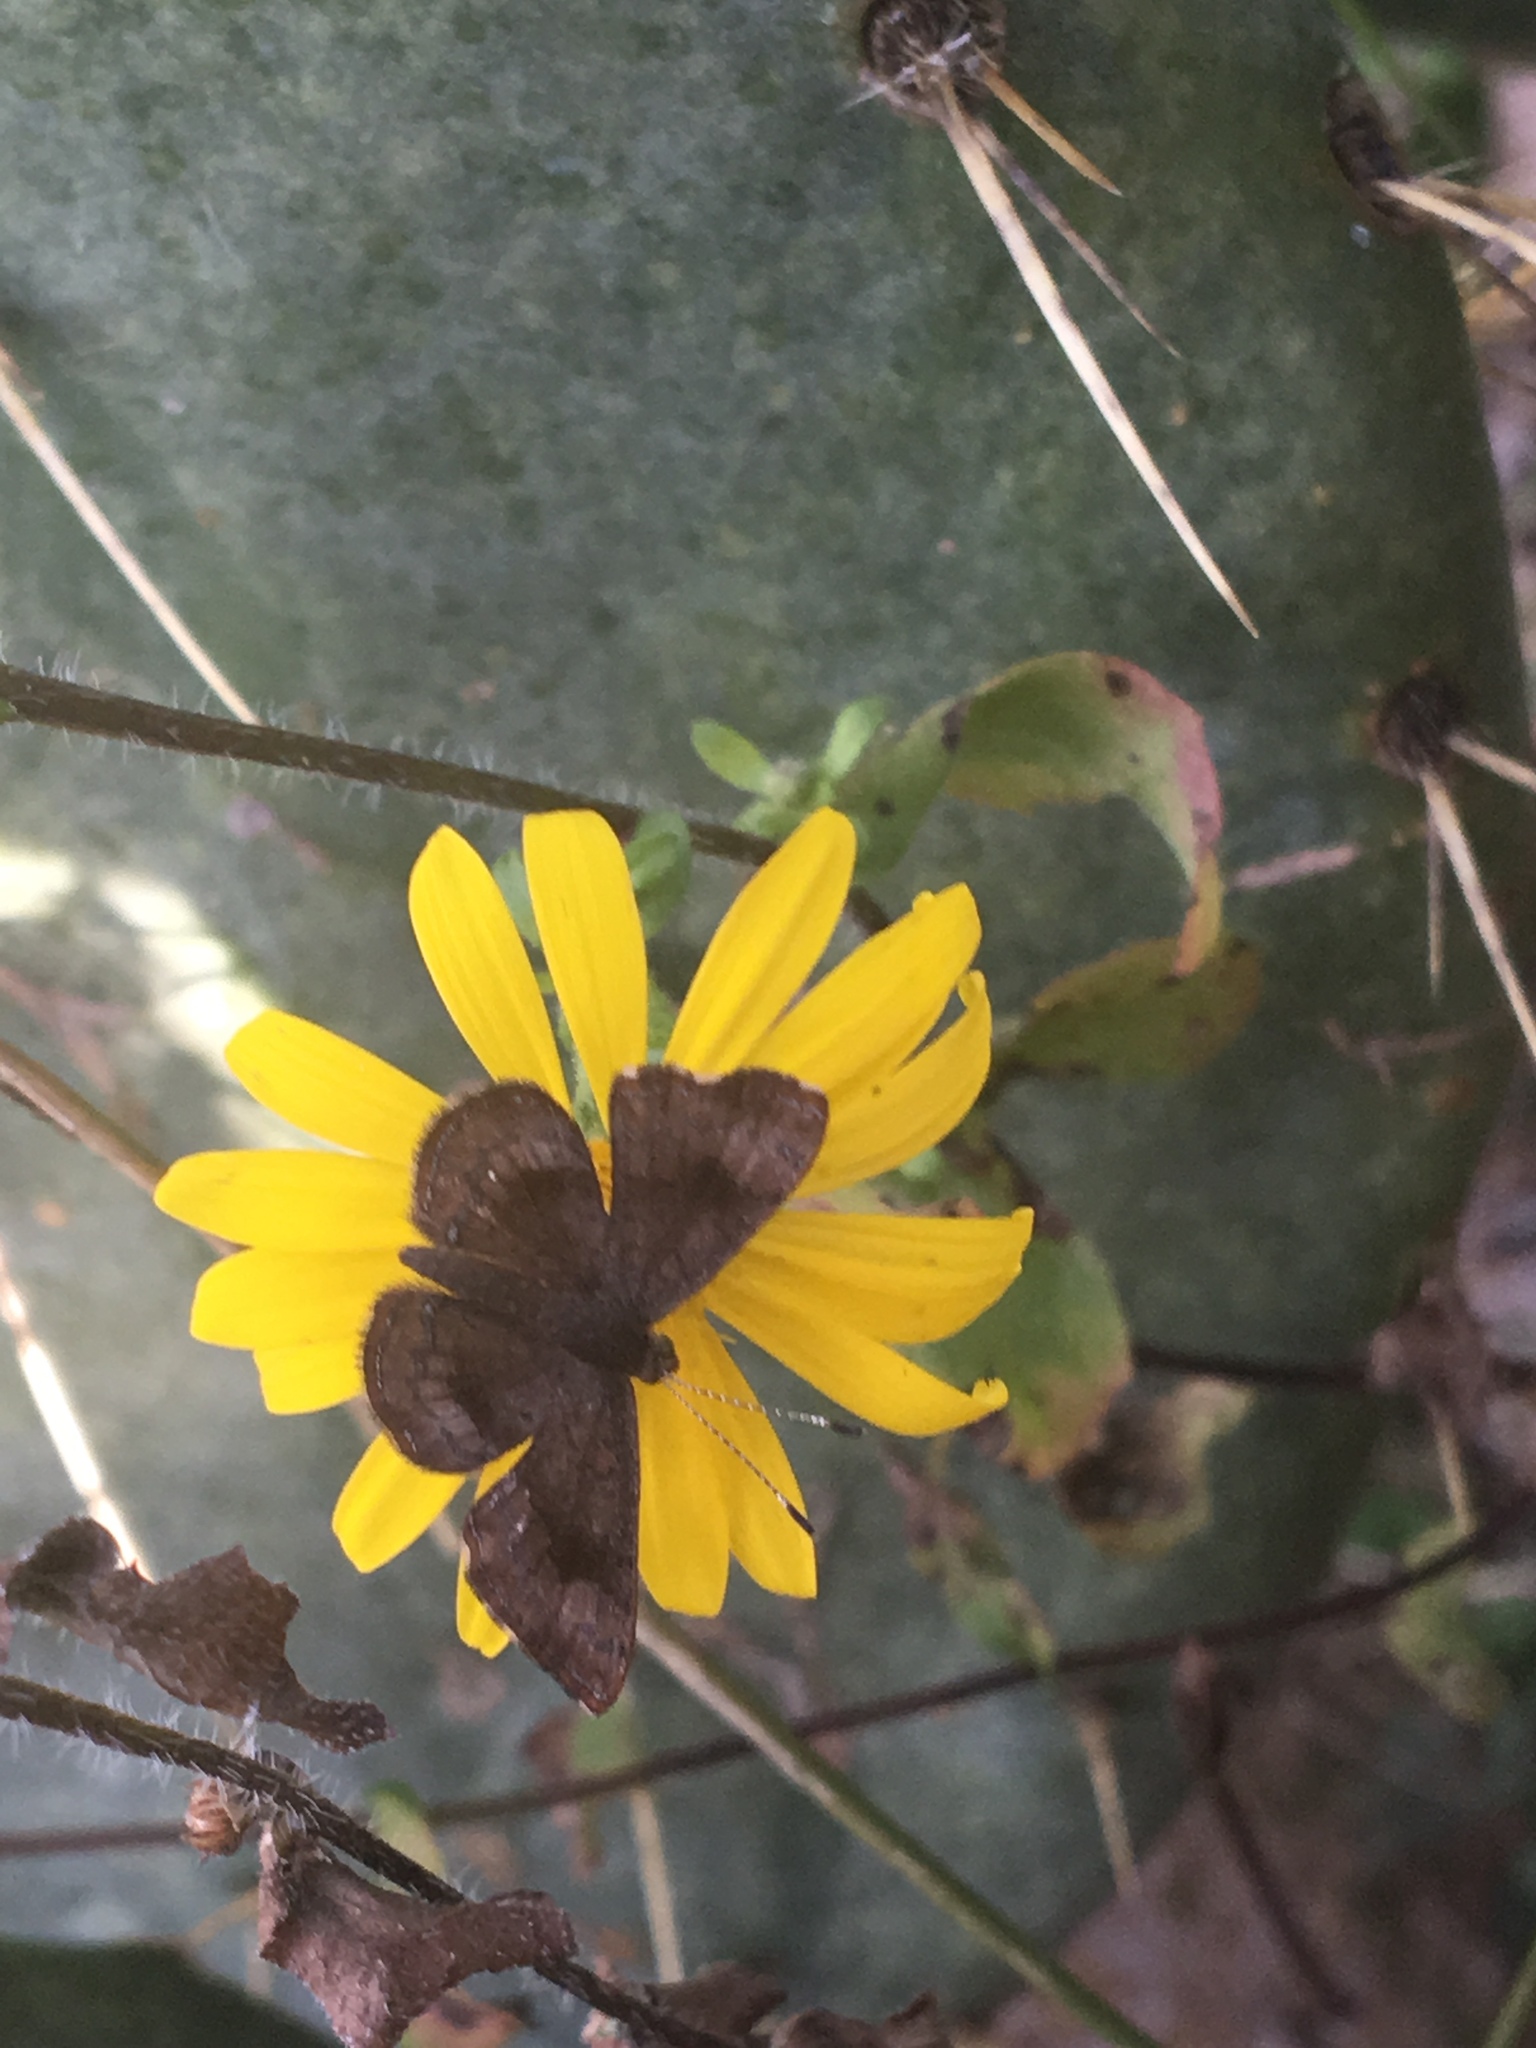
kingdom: Animalia
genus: Calephelis
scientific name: Calephelis nemesis
